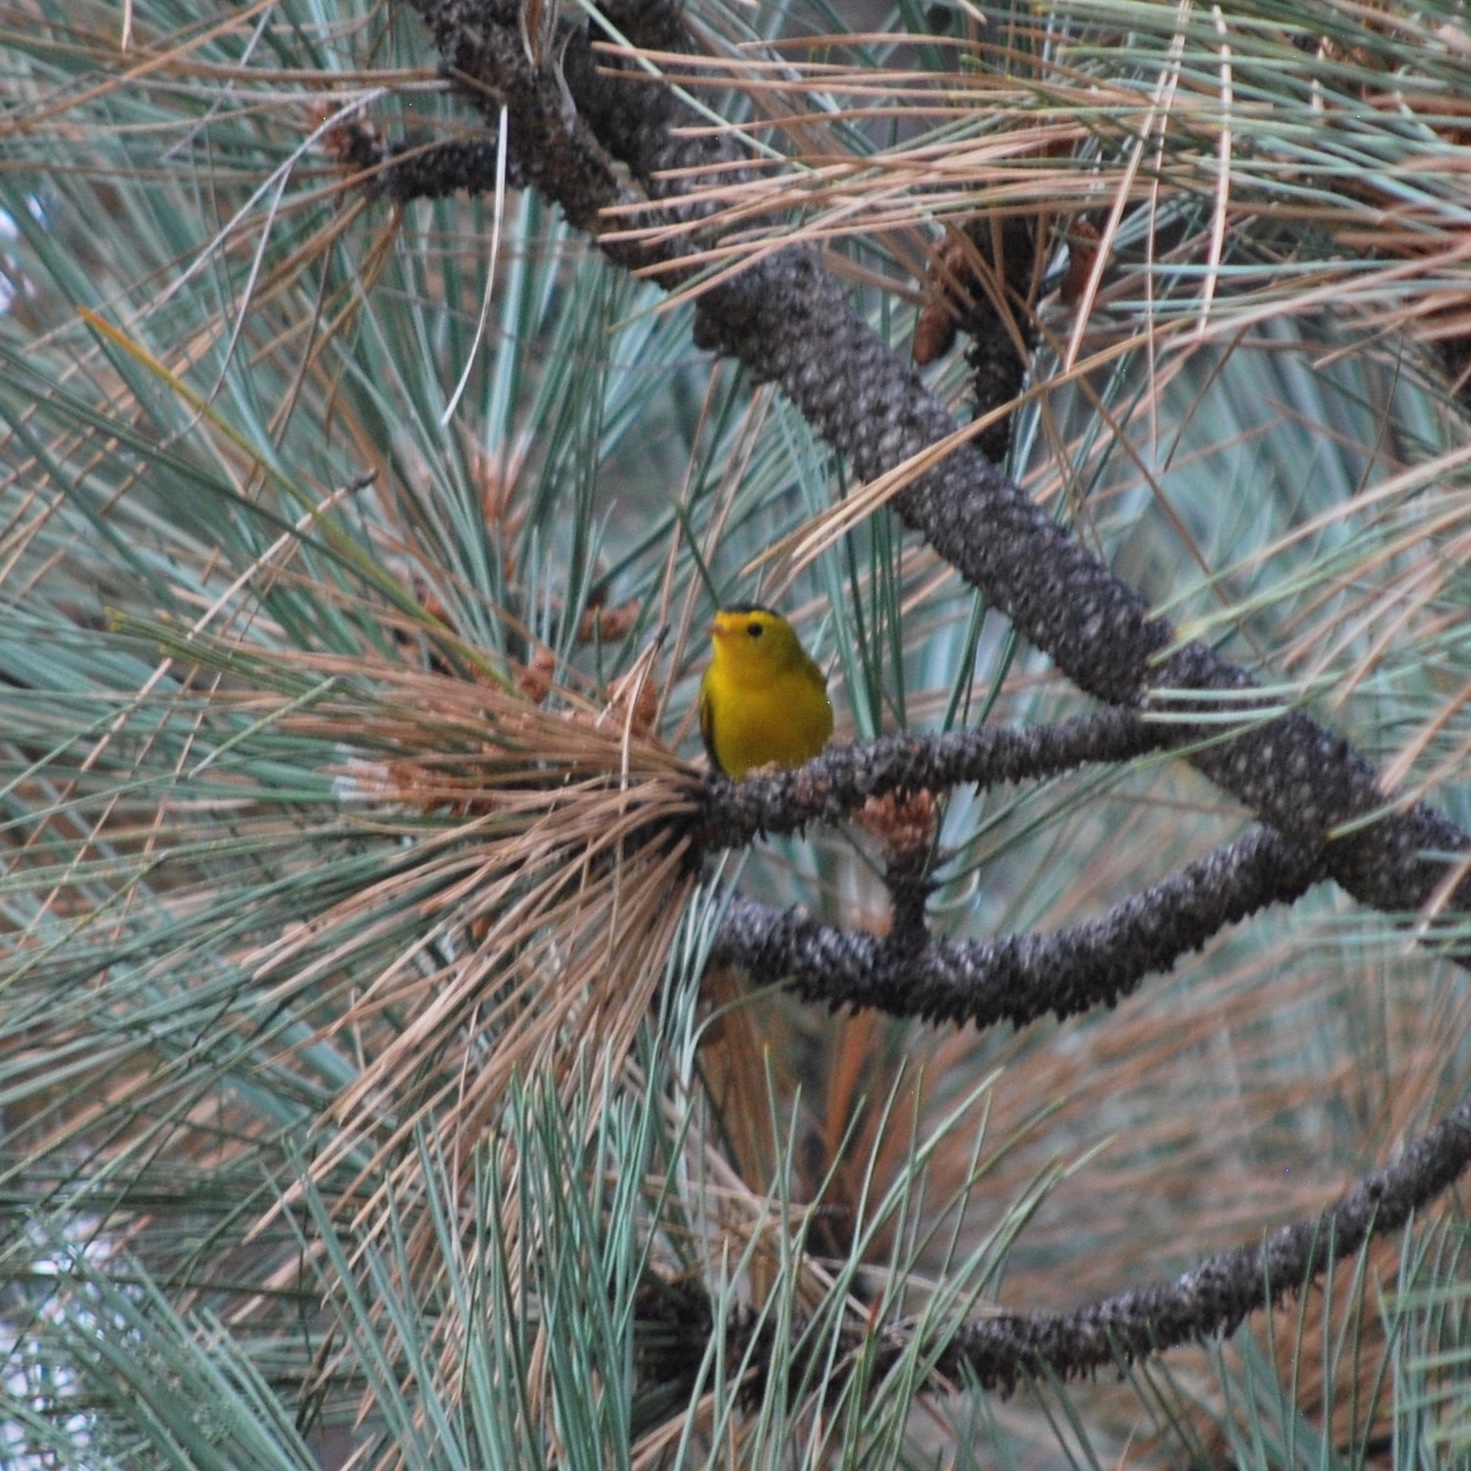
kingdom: Animalia
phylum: Chordata
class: Aves
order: Passeriformes
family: Parulidae
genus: Cardellina
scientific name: Cardellina pusilla
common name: Wilson's warbler
